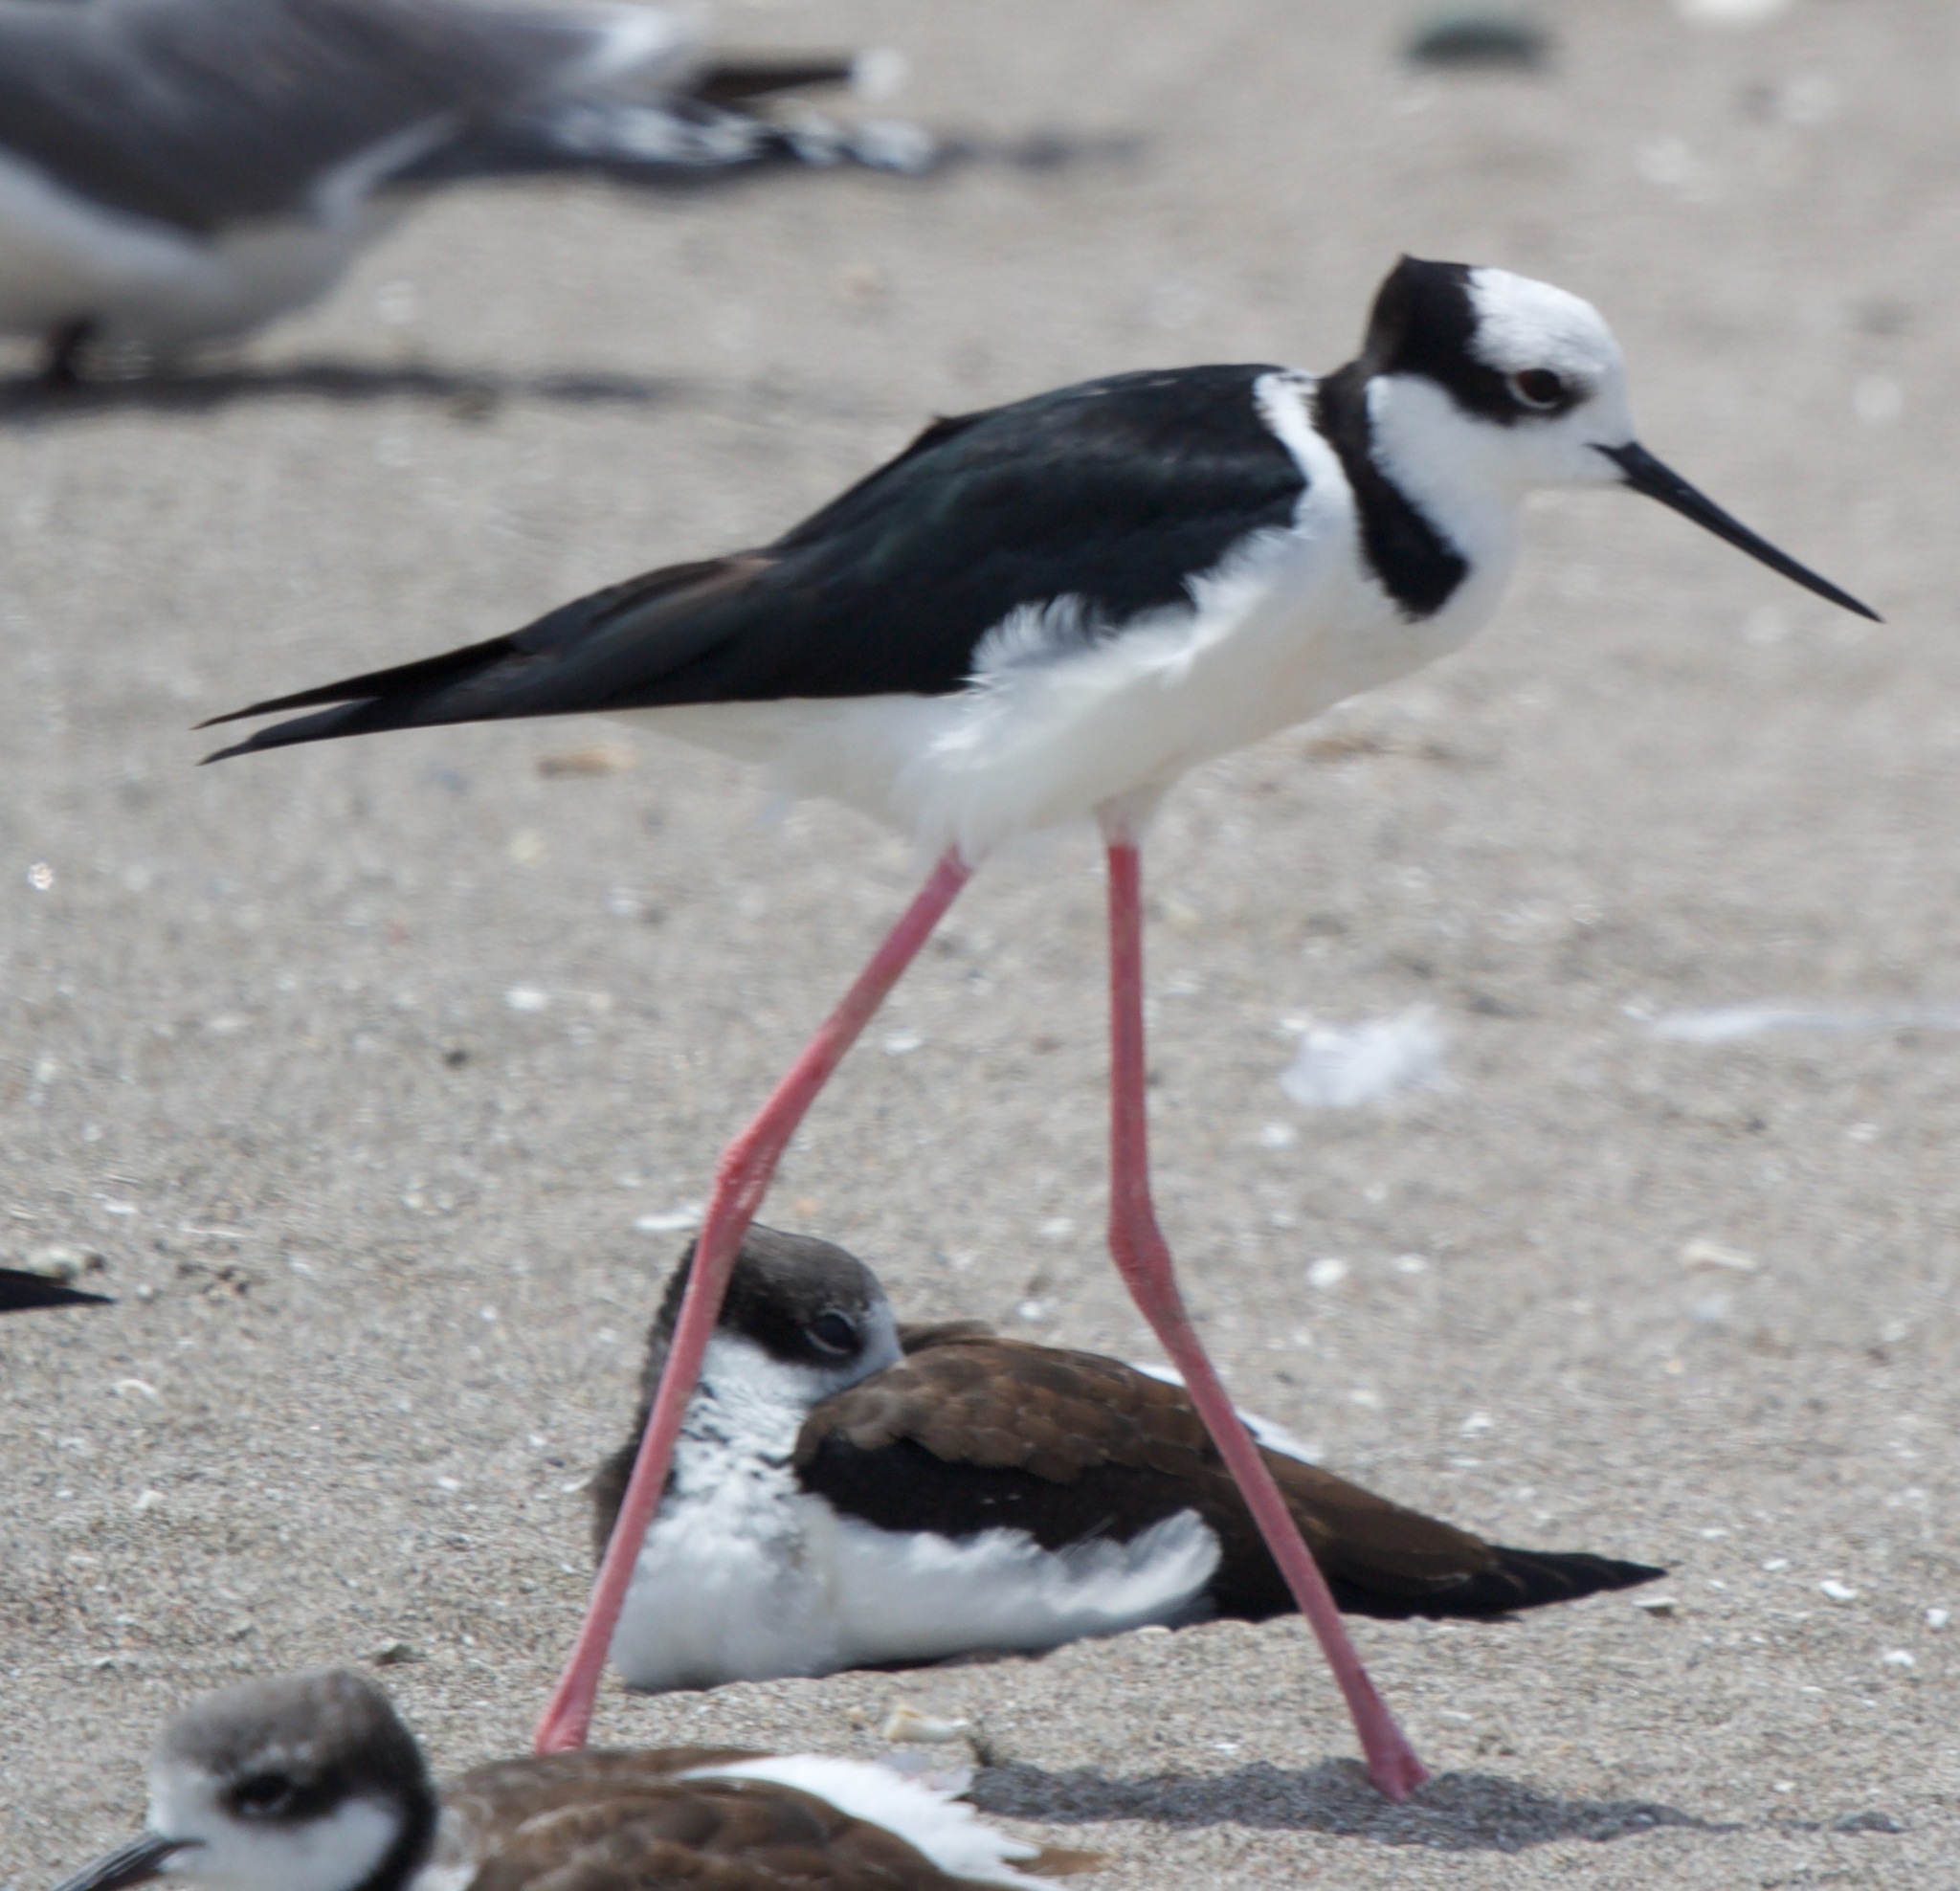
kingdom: Animalia
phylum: Chordata
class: Aves
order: Charadriiformes
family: Recurvirostridae
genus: Himantopus
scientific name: Himantopus mexicanus
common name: Black-necked stilt
